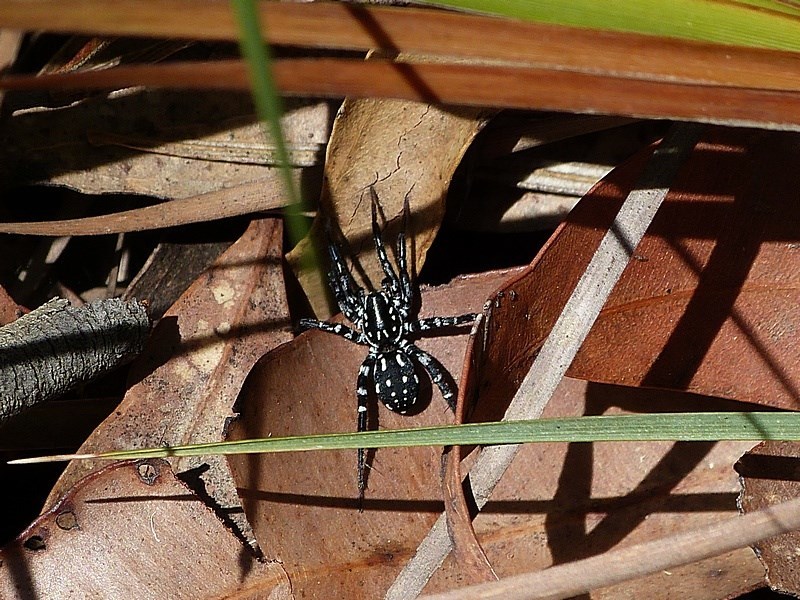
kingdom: Animalia
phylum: Arthropoda
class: Arachnida
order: Araneae
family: Corinnidae
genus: Nyssus
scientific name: Nyssus albopunctatus
